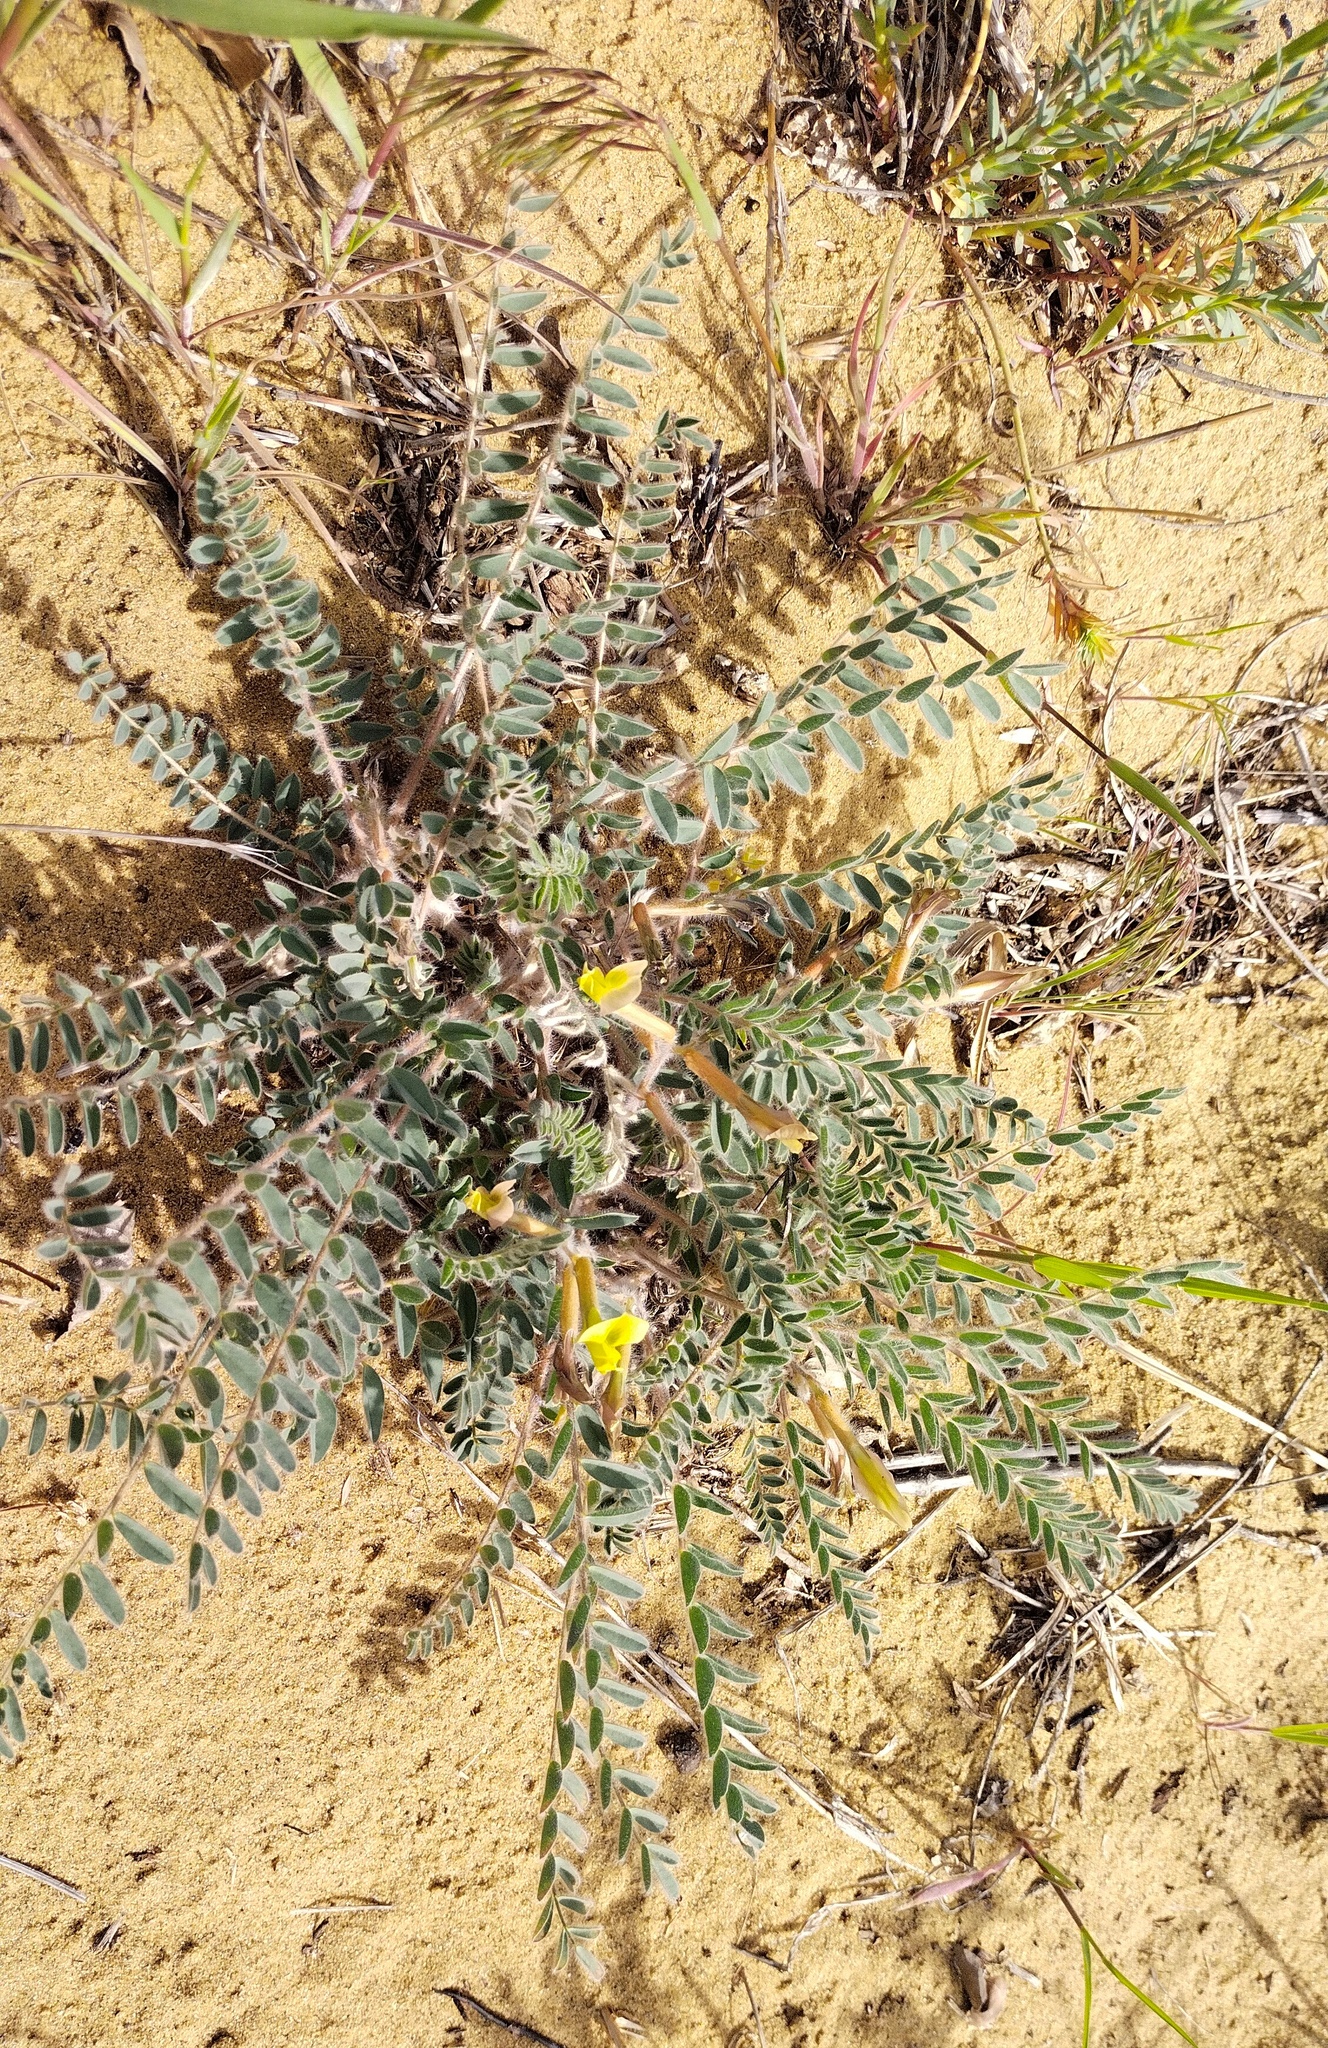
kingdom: Plantae
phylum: Tracheophyta
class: Magnoliopsida
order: Fabales
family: Fabaceae
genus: Astragalus
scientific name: Astragalus longipetalus
